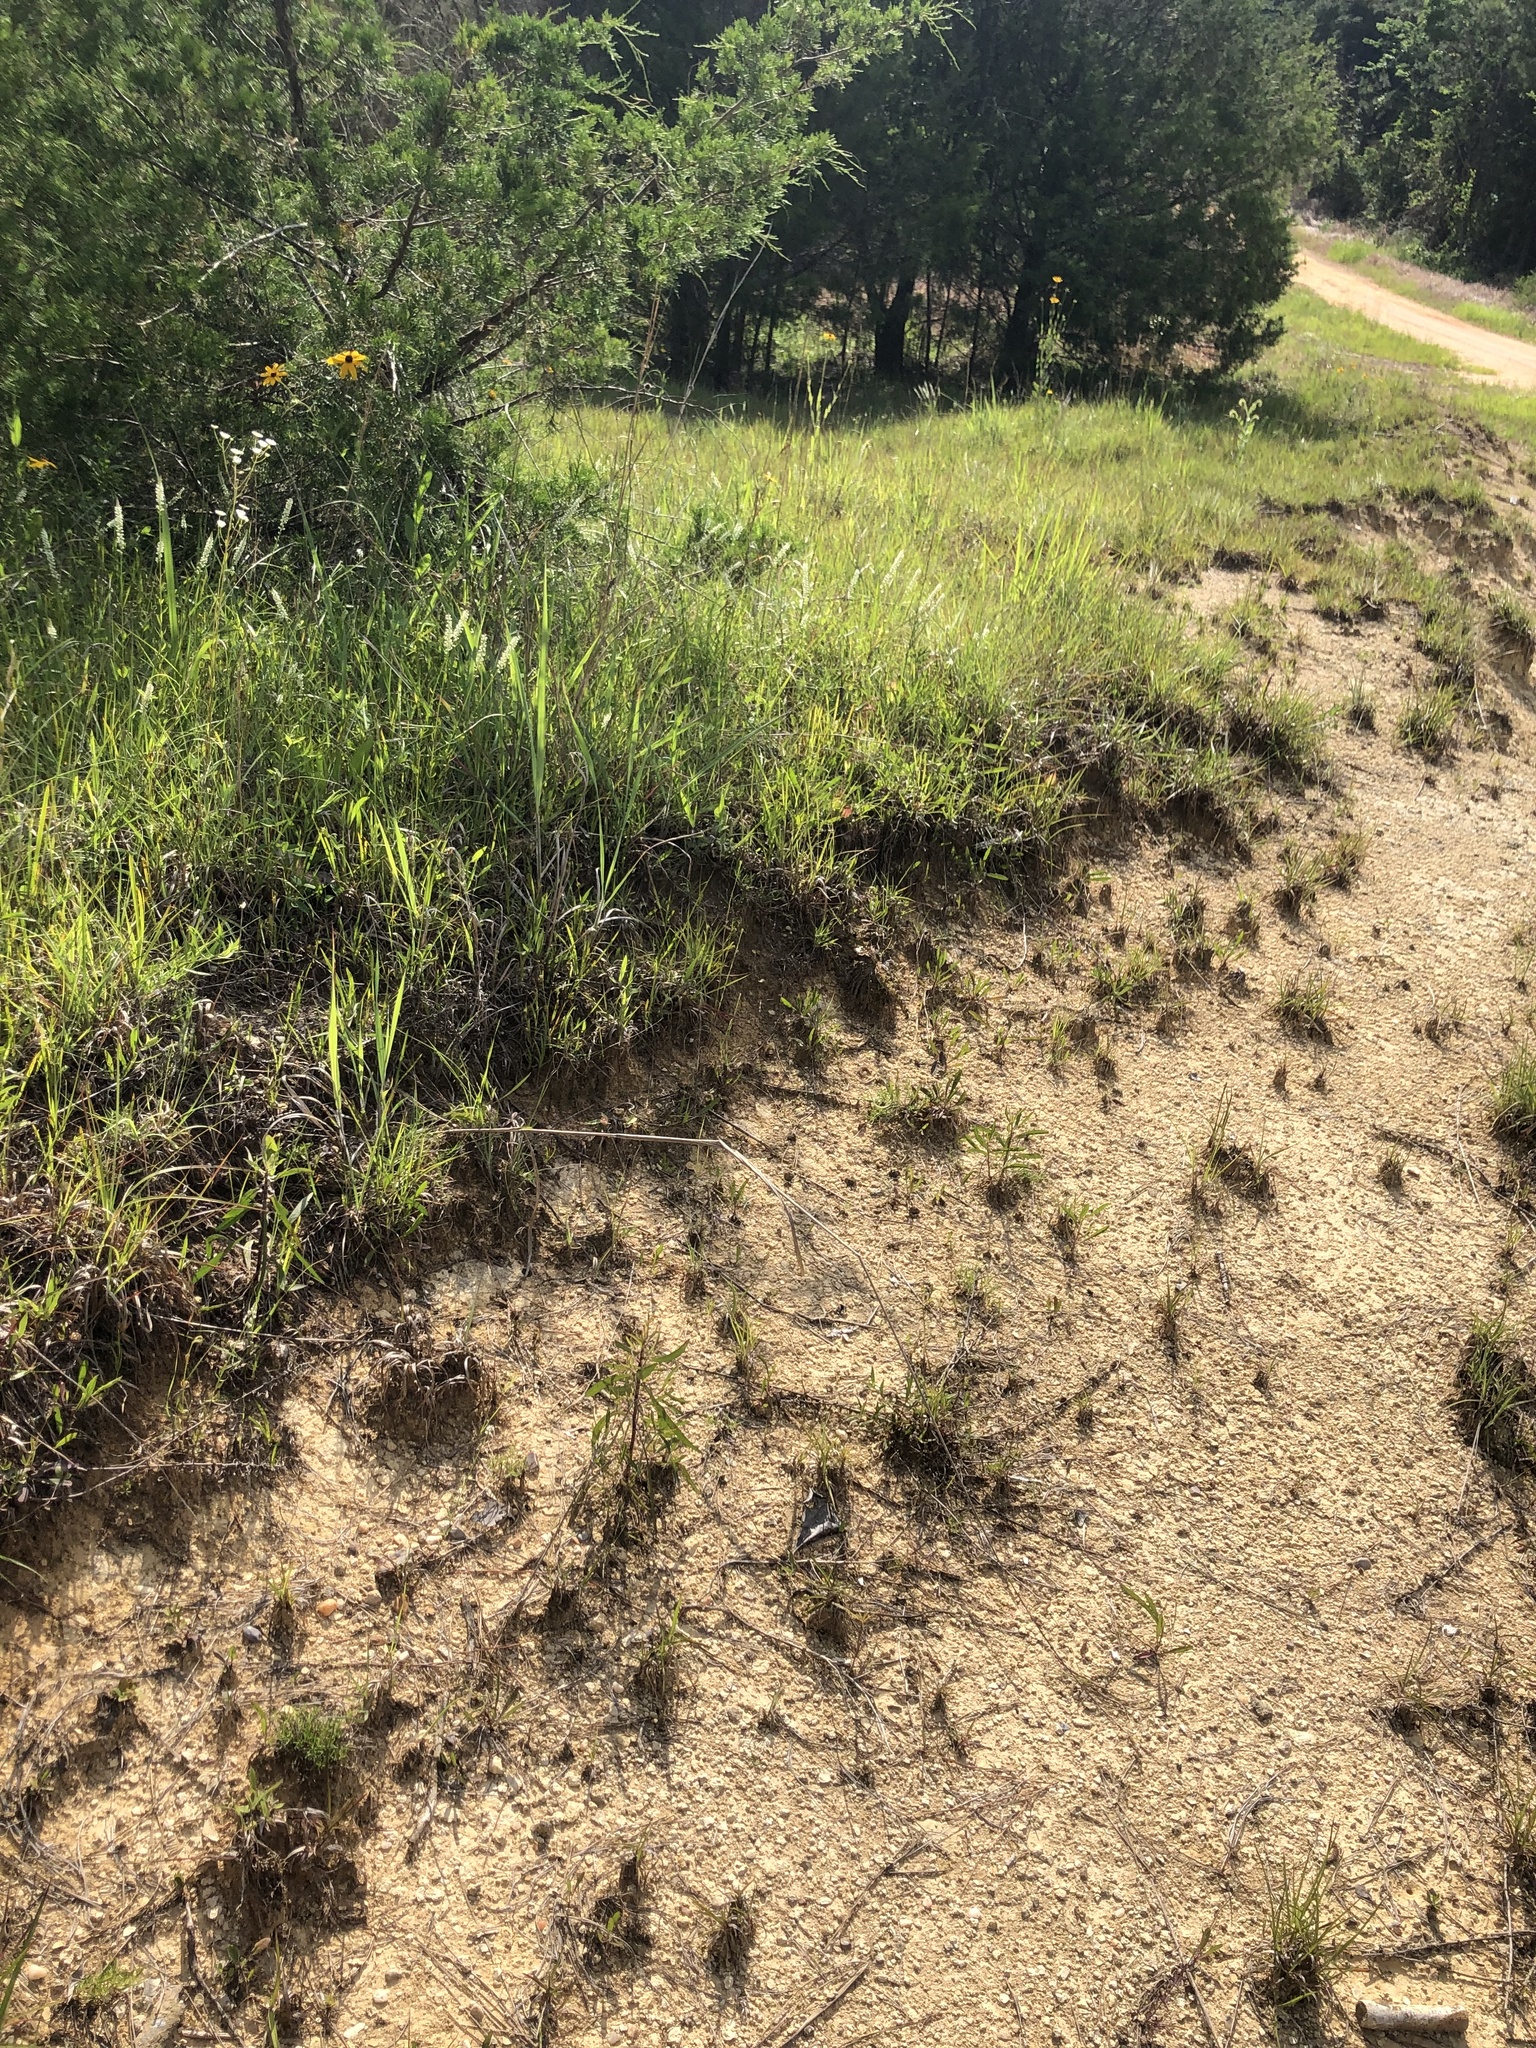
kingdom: Plantae
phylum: Tracheophyta
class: Magnoliopsida
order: Fabales
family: Polygalaceae
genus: Polygala
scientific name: Polygala boykinii
